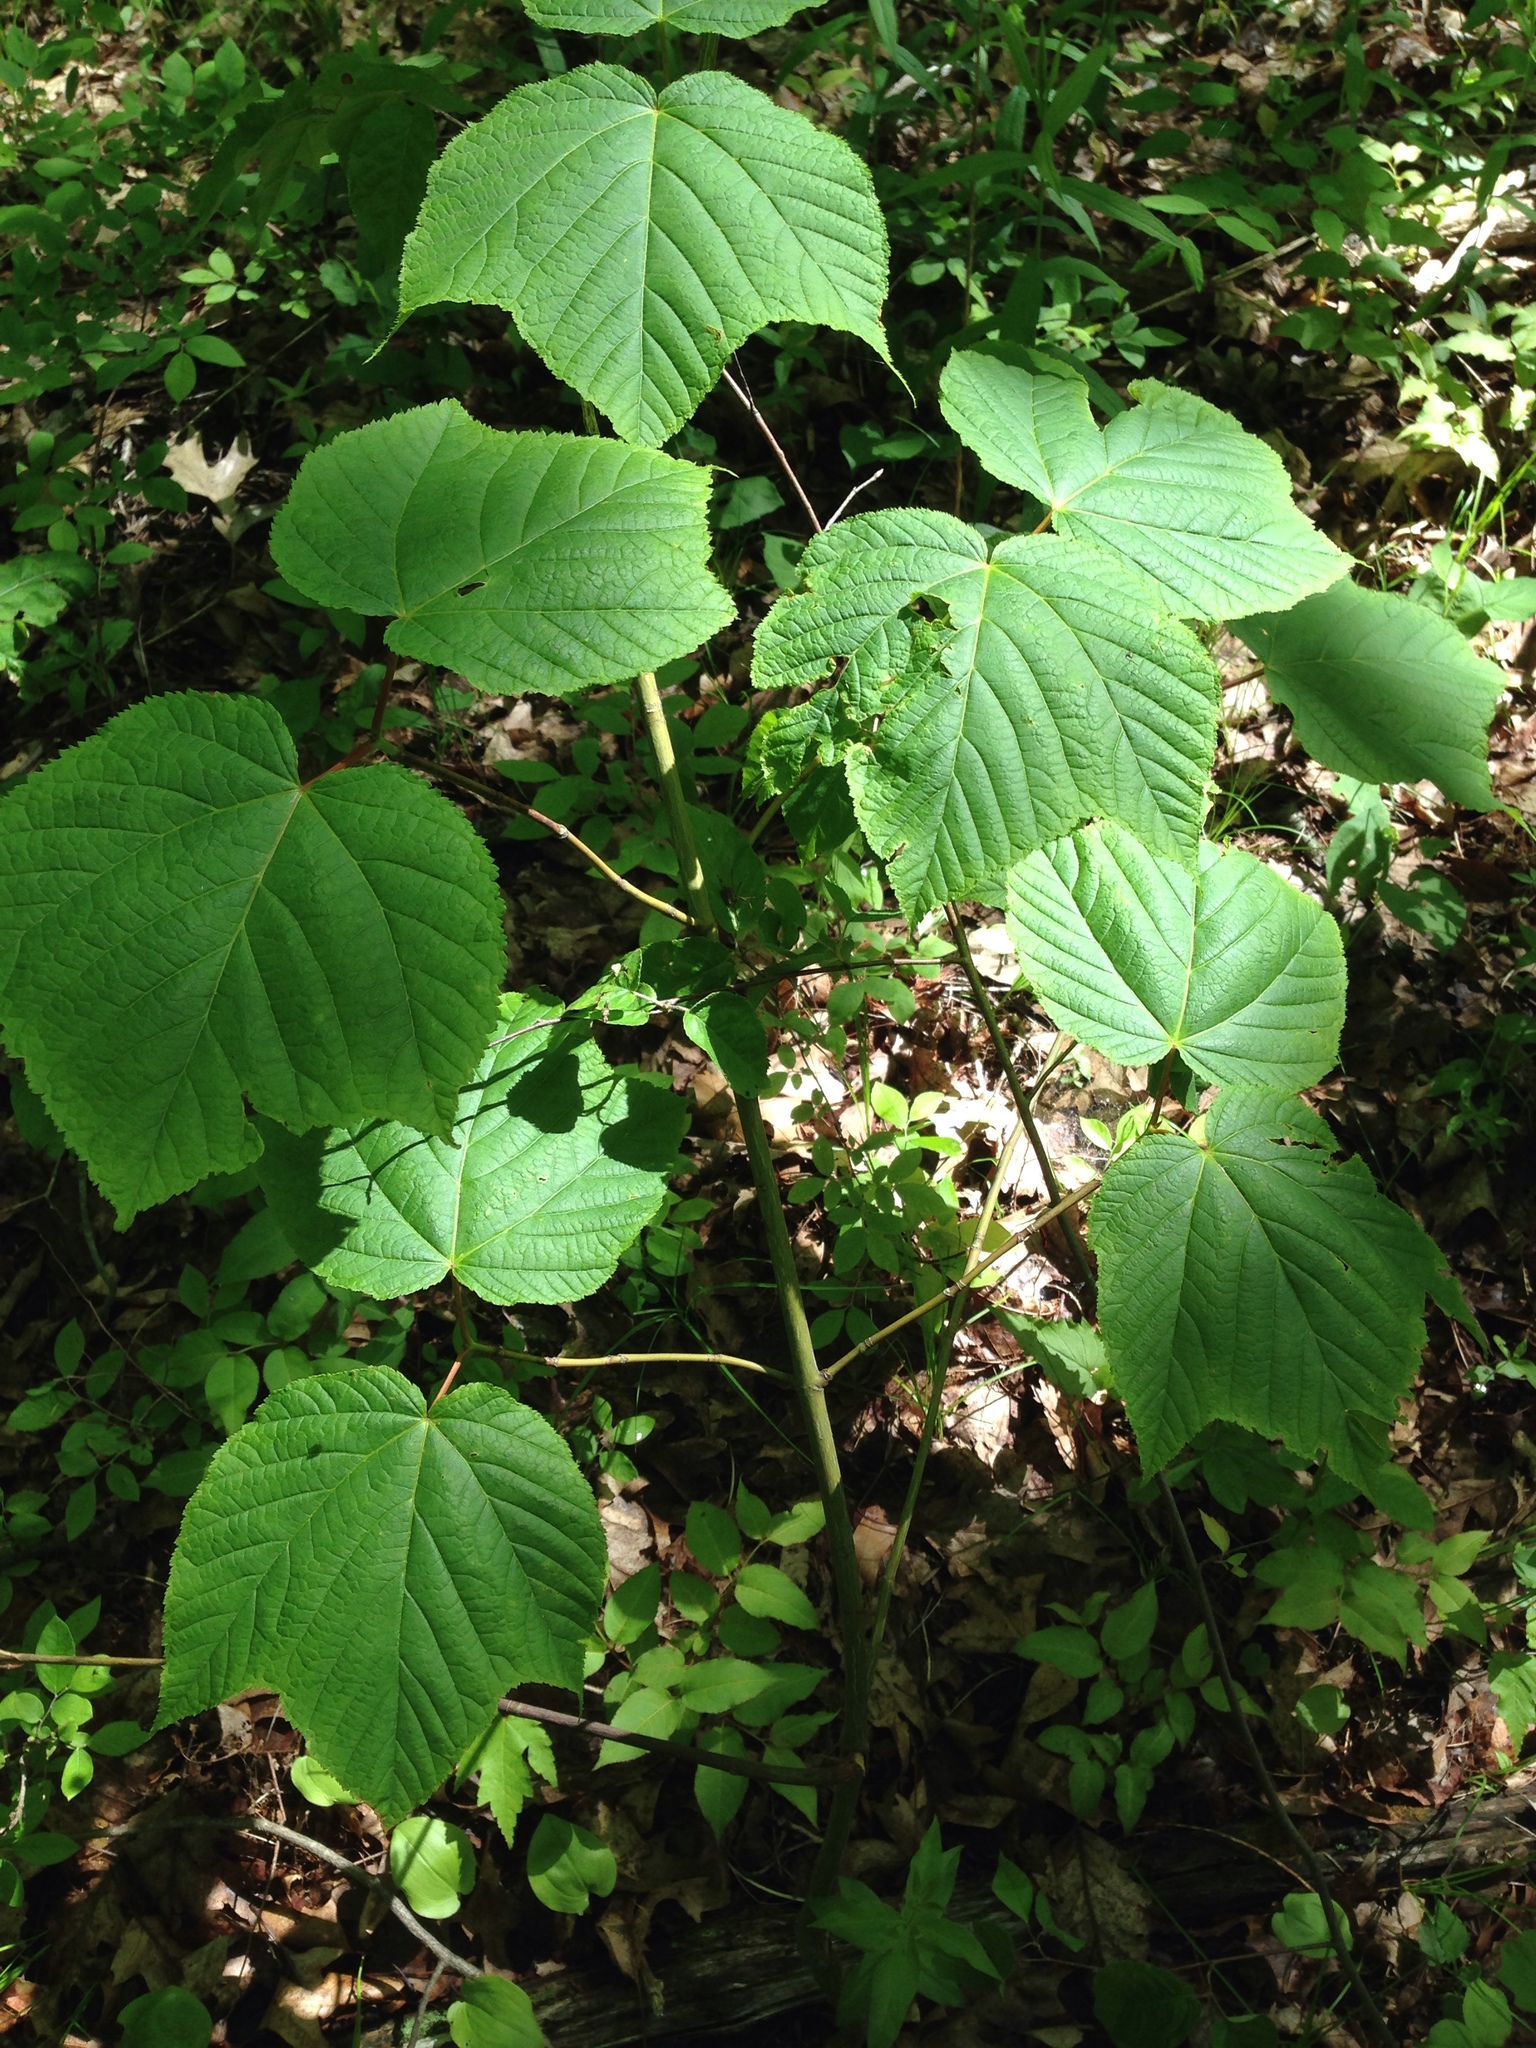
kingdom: Plantae
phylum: Tracheophyta
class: Magnoliopsida
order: Sapindales
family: Sapindaceae
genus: Acer
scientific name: Acer pensylvanicum
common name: Moosewood
